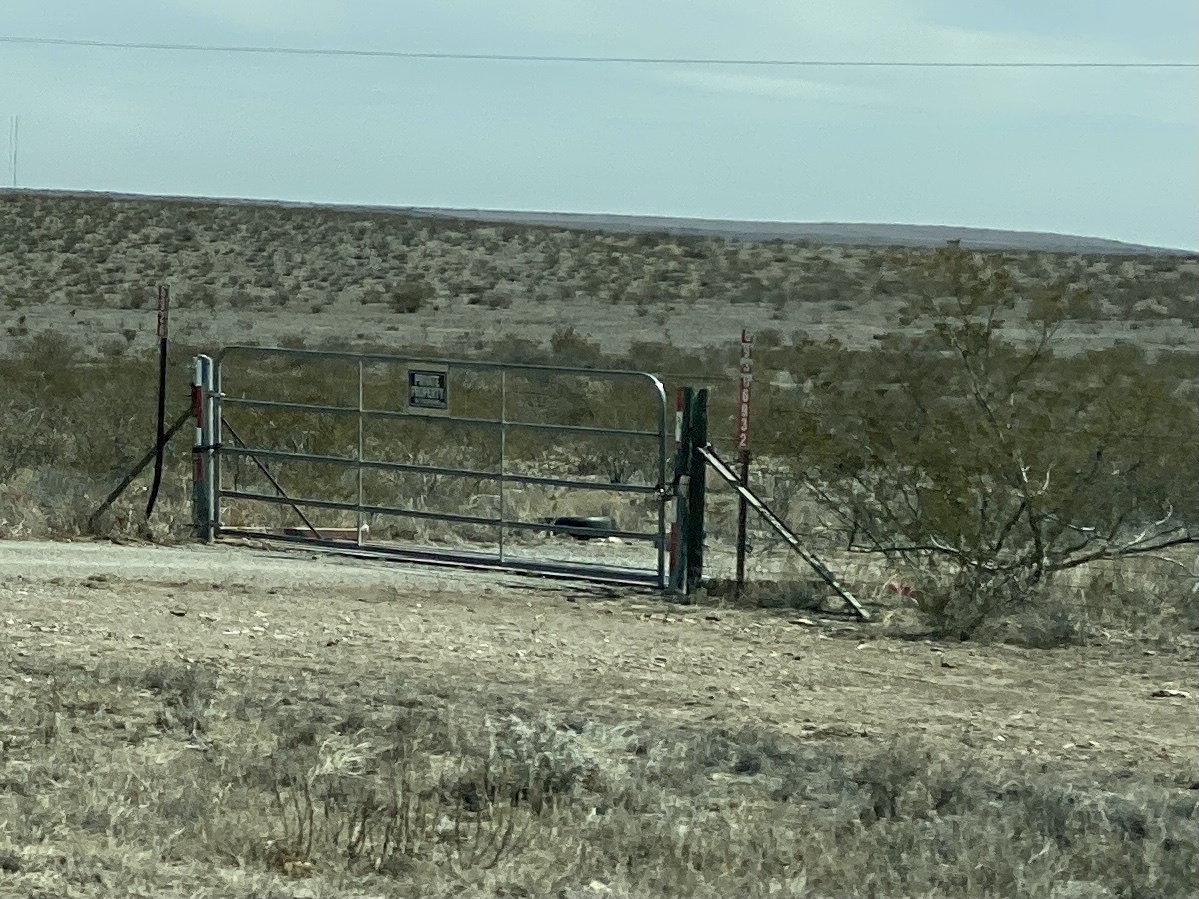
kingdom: Plantae
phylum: Tracheophyta
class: Magnoliopsida
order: Zygophyllales
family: Zygophyllaceae
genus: Larrea
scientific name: Larrea tridentata
